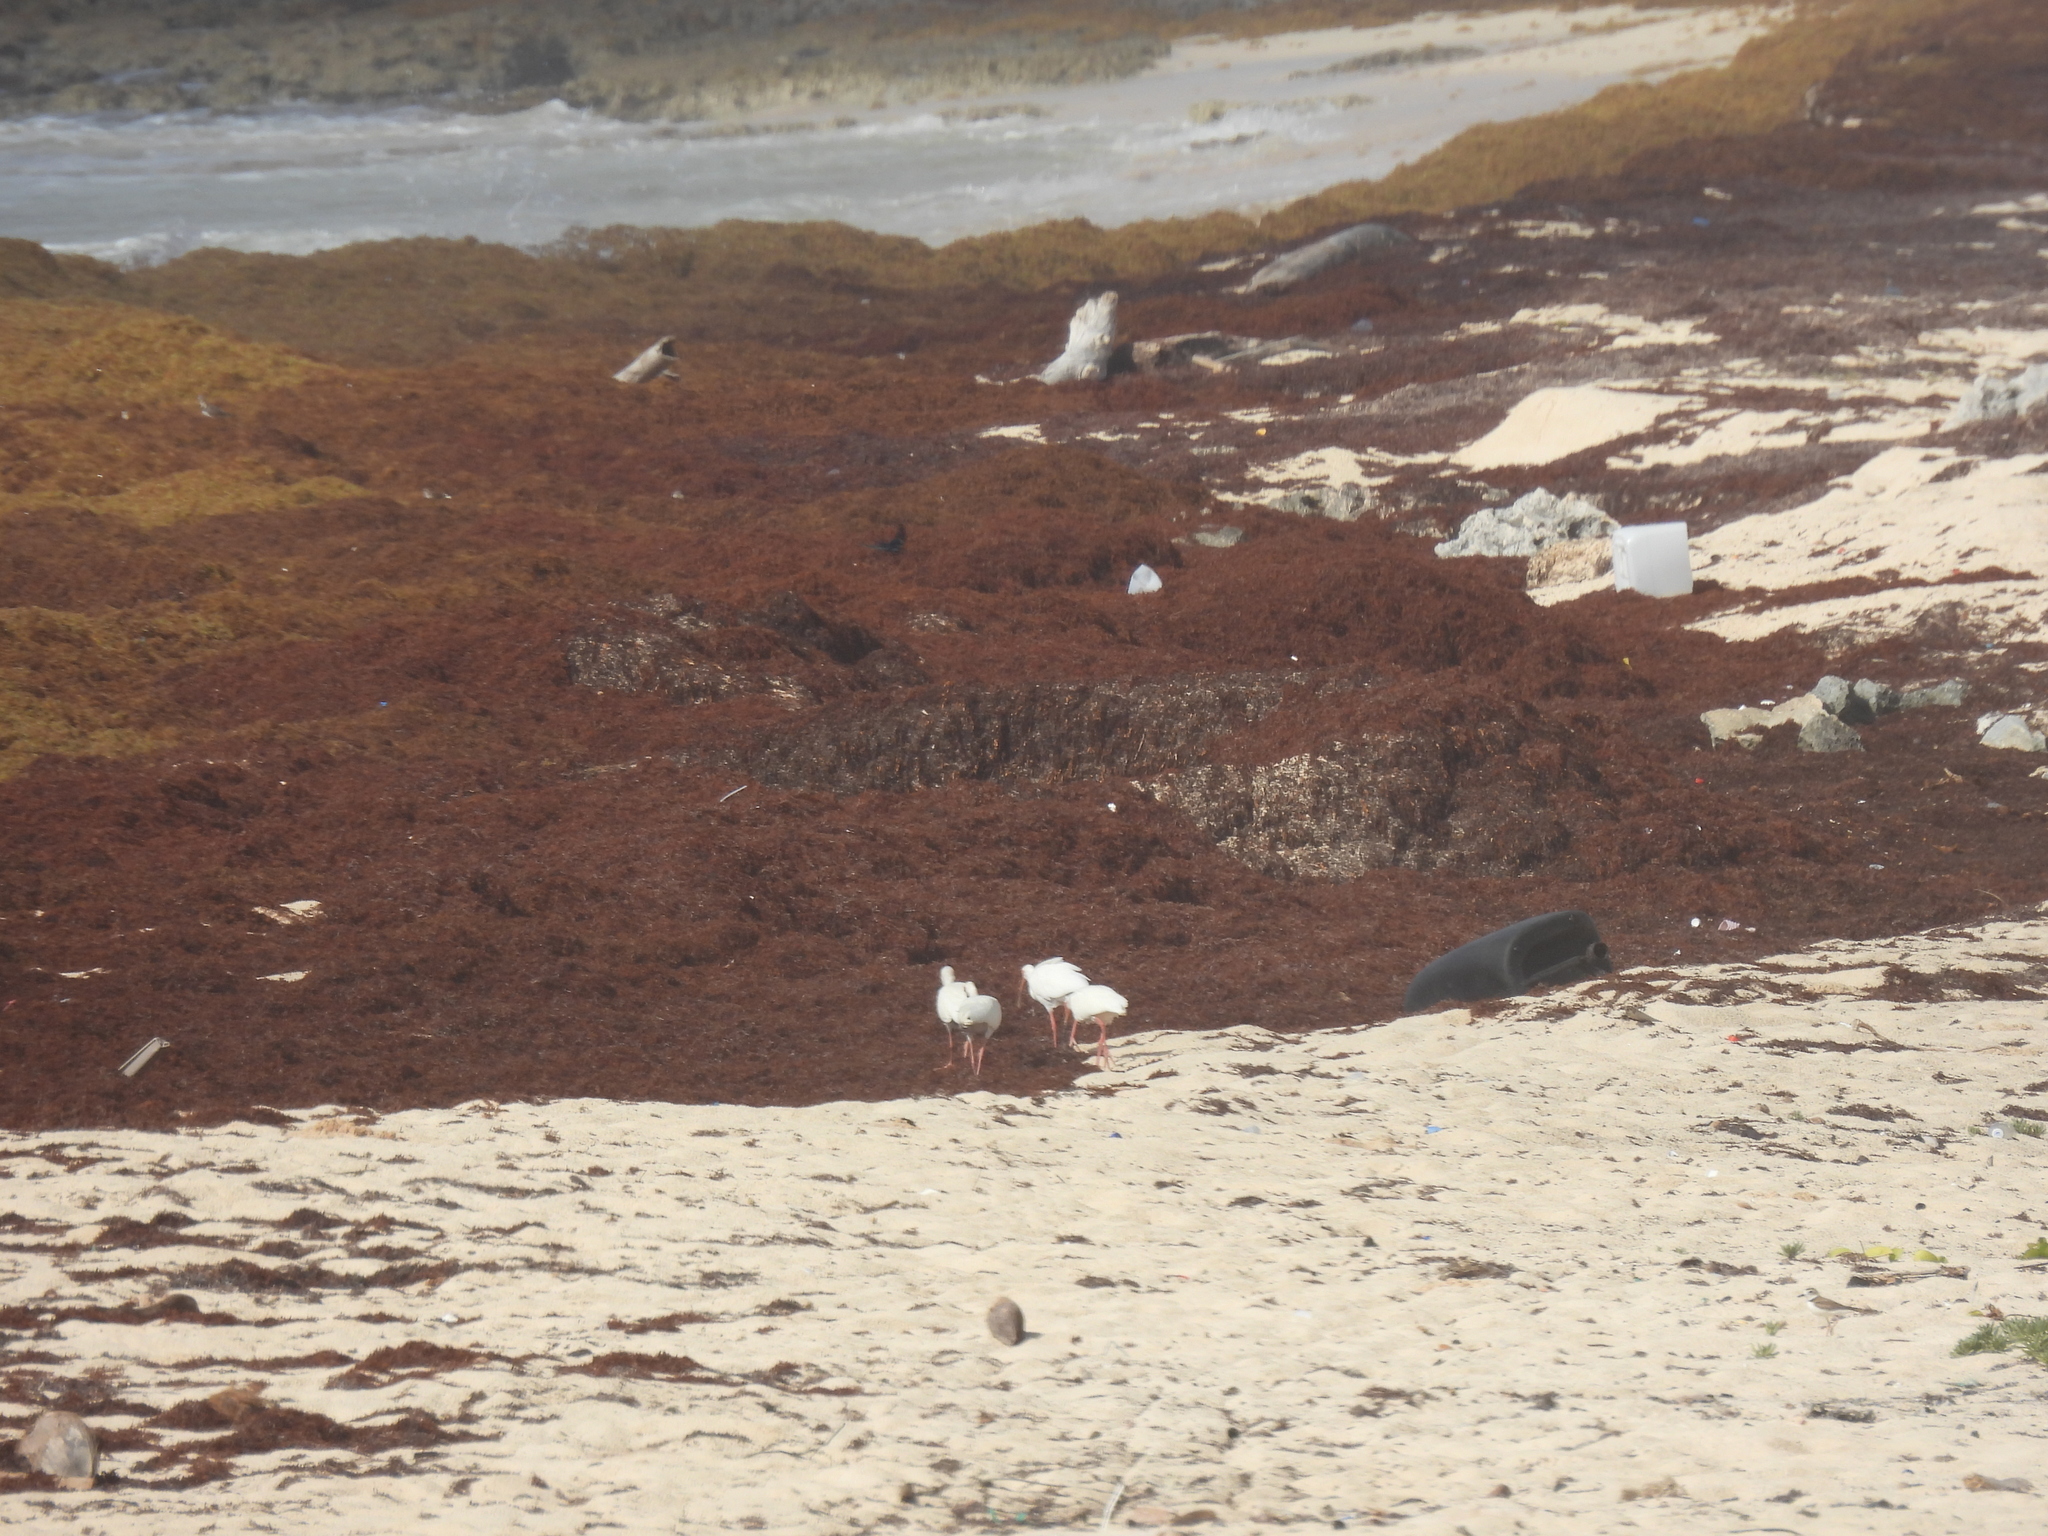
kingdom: Animalia
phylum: Chordata
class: Aves
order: Pelecaniformes
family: Threskiornithidae
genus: Eudocimus
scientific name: Eudocimus albus
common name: White ibis
